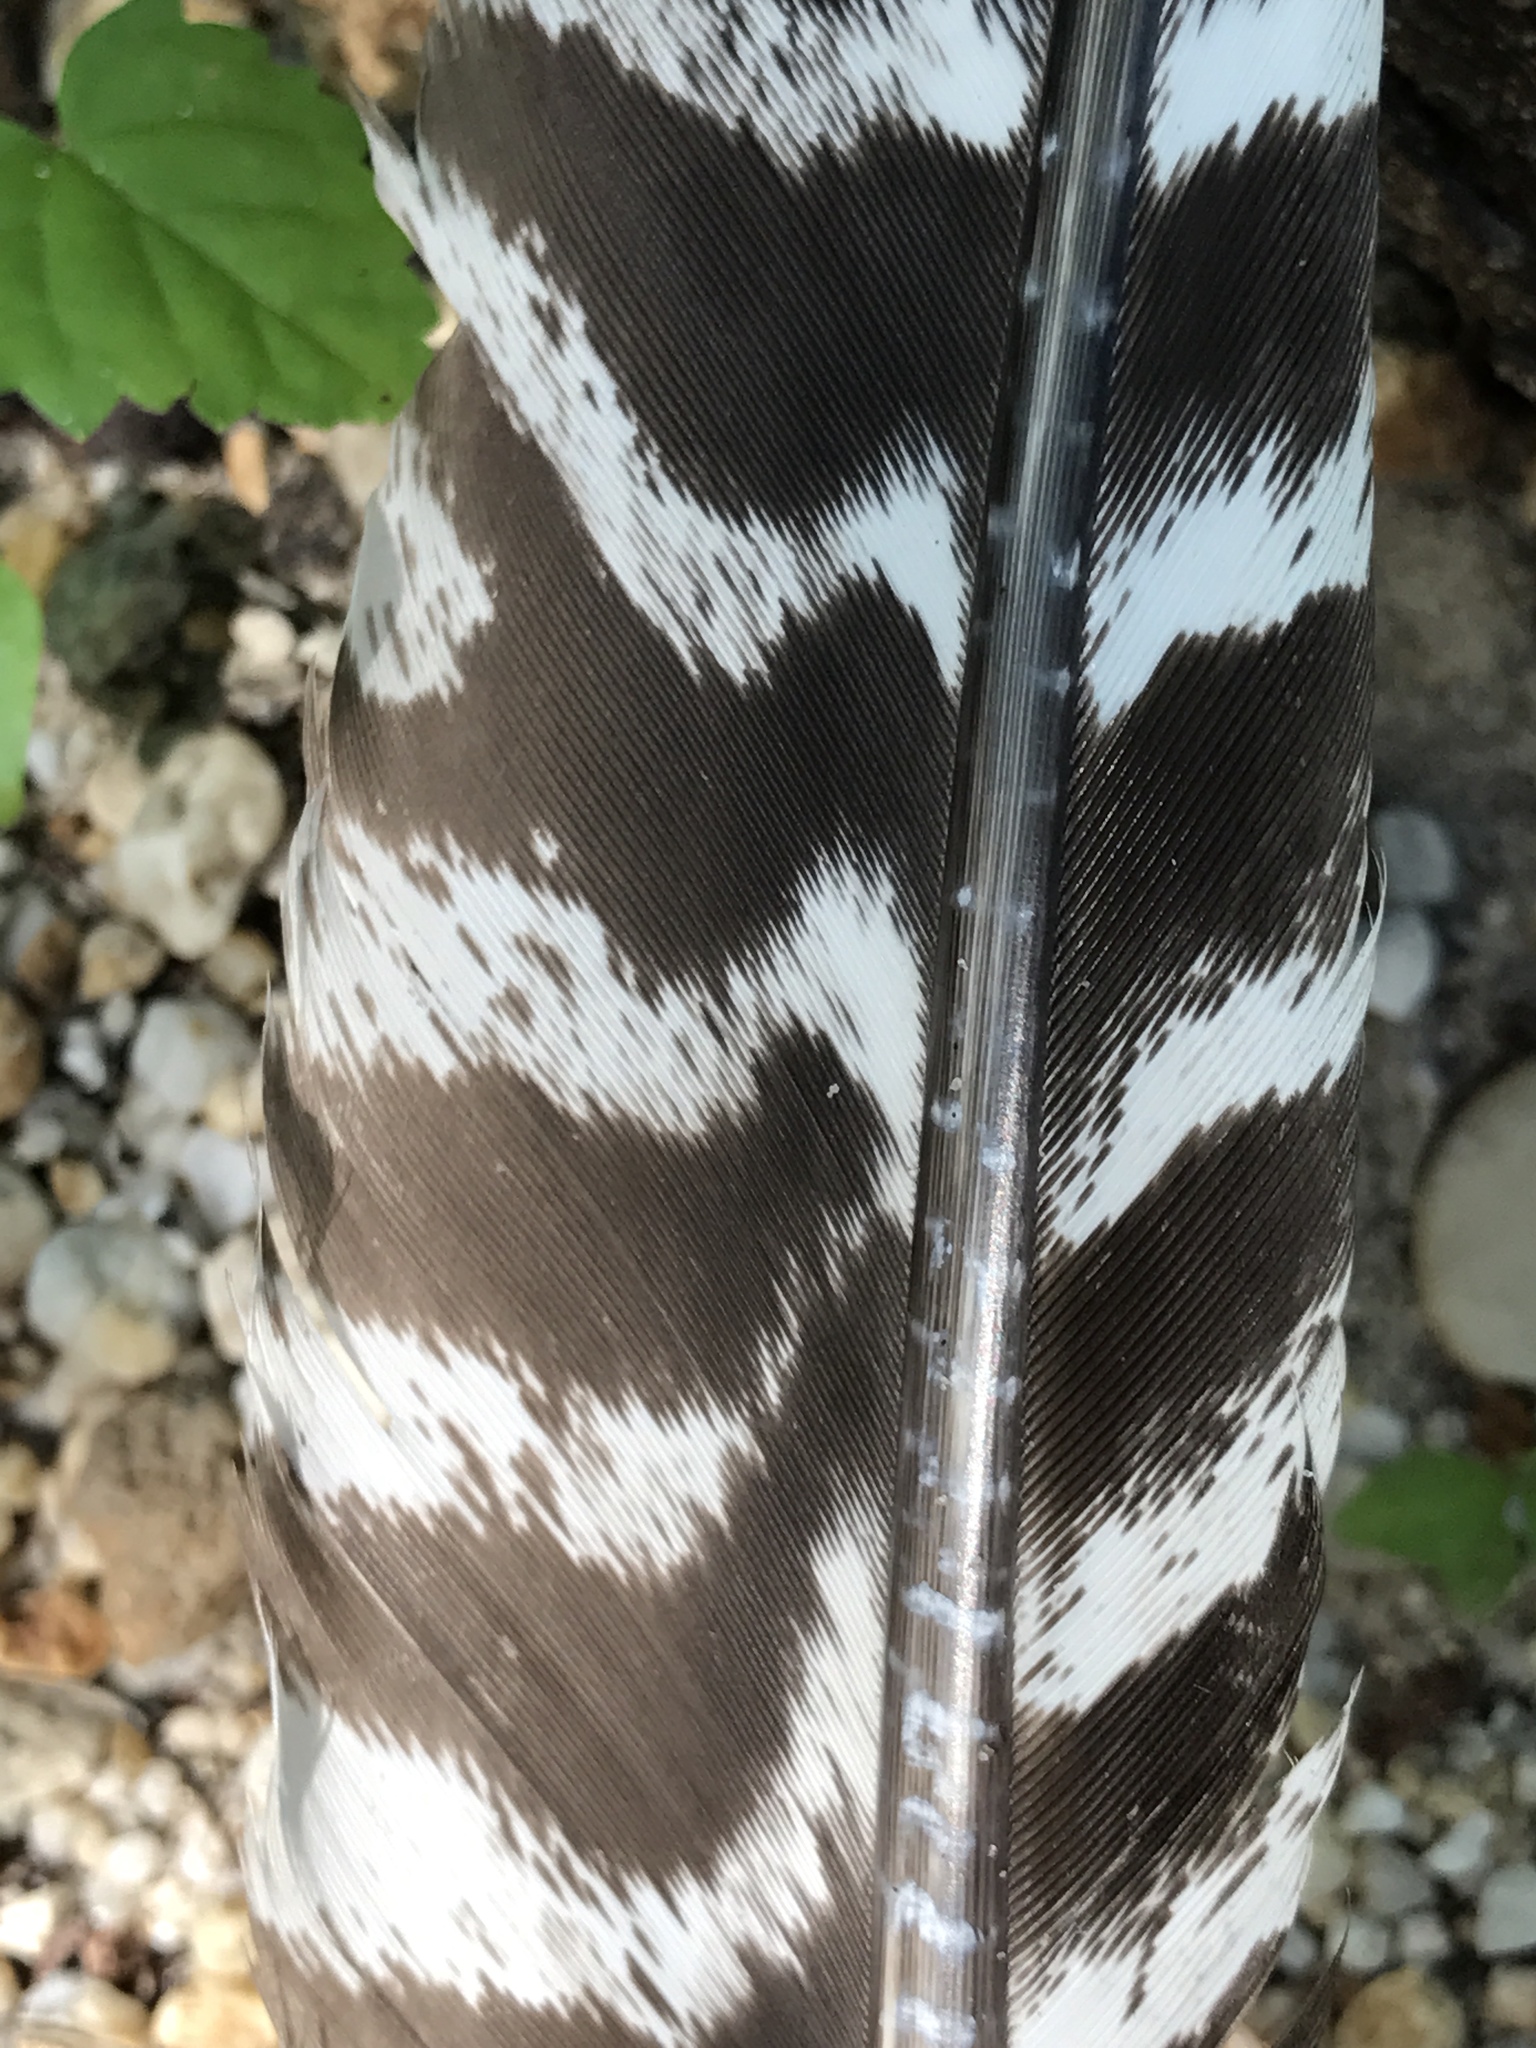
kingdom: Animalia
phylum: Chordata
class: Aves
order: Galliformes
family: Phasianidae
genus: Meleagris
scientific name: Meleagris gallopavo
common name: Wild turkey
